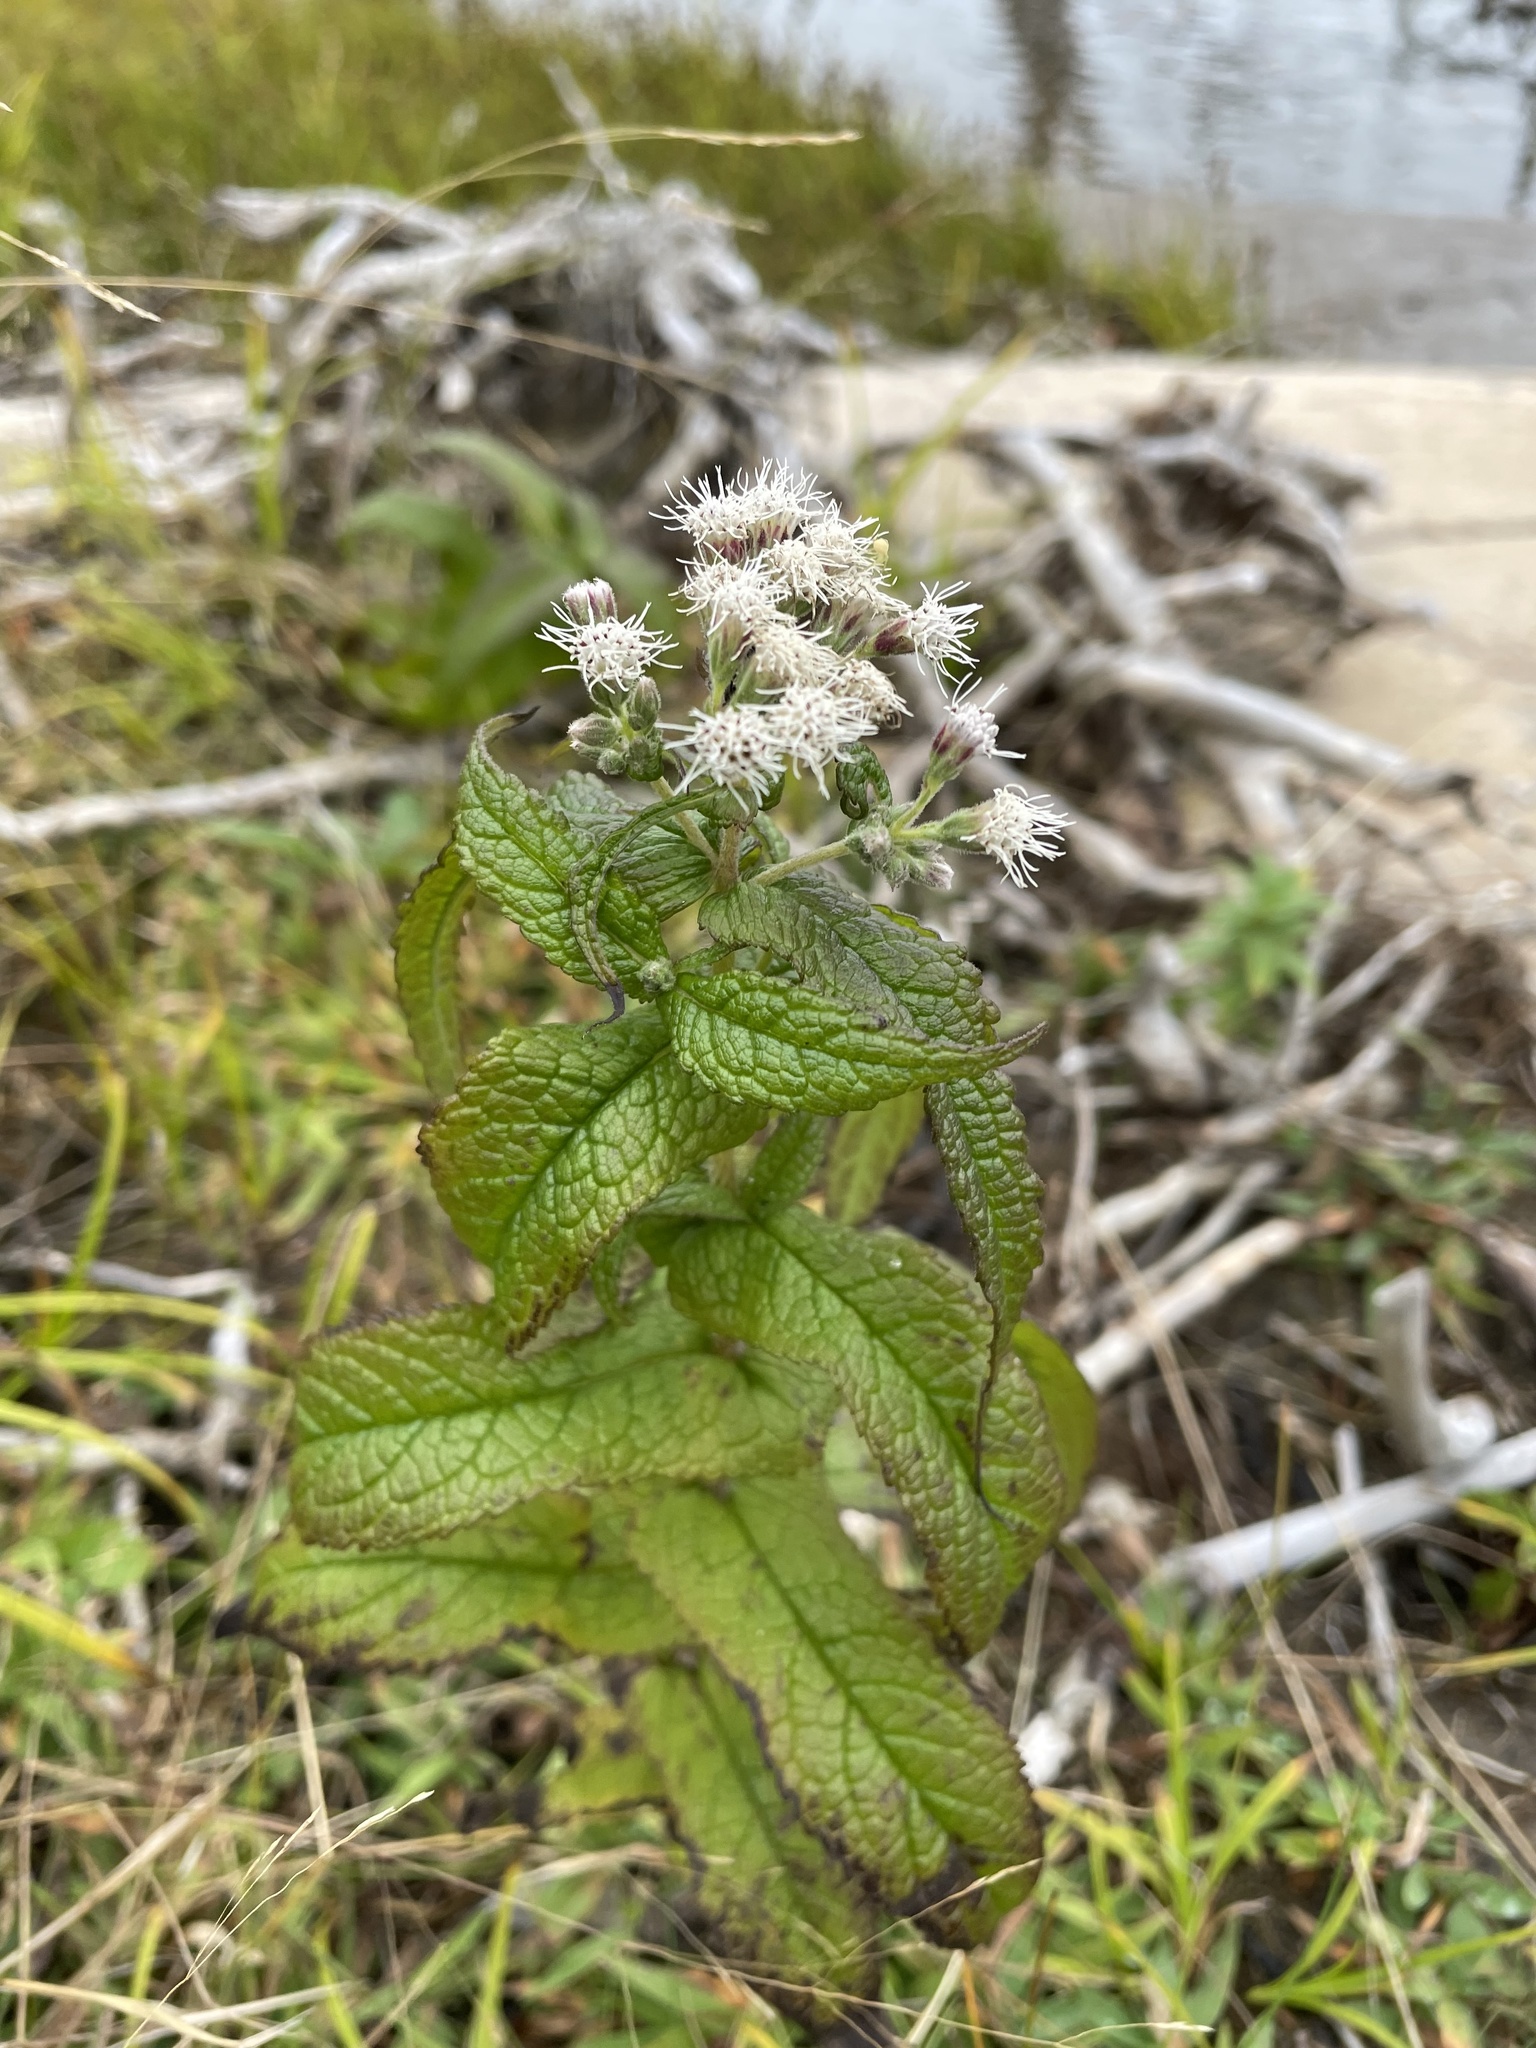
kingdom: Plantae
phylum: Tracheophyta
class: Magnoliopsida
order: Asterales
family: Asteraceae
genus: Eupatorium
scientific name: Eupatorium perfoliatum
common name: Boneset
